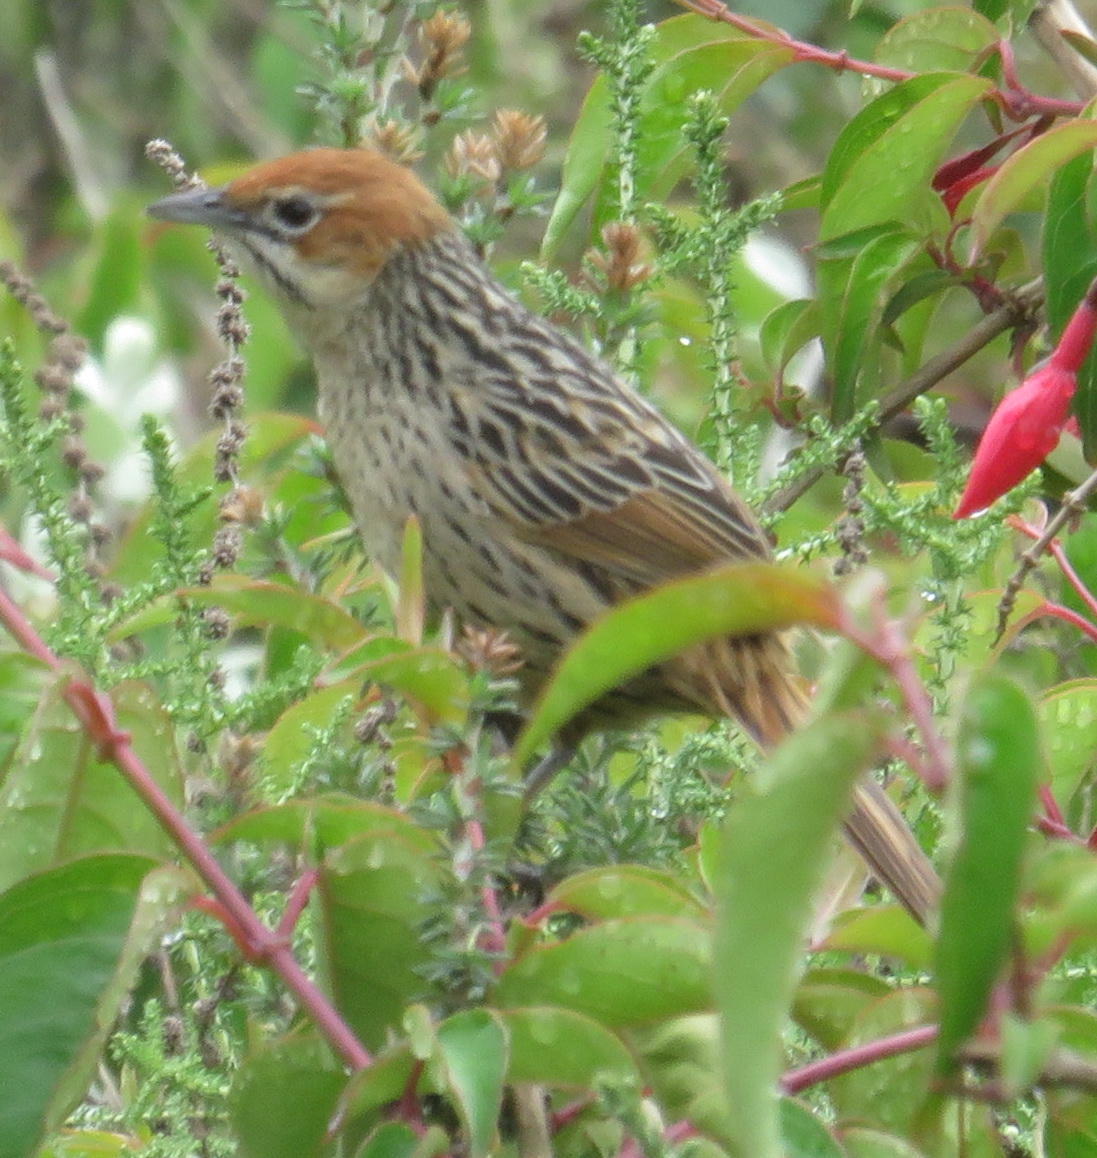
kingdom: Animalia
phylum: Chordata
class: Aves
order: Passeriformes
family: Macrosphenidae
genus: Sphenoeacus
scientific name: Sphenoeacus afer
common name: Cape grassbird
